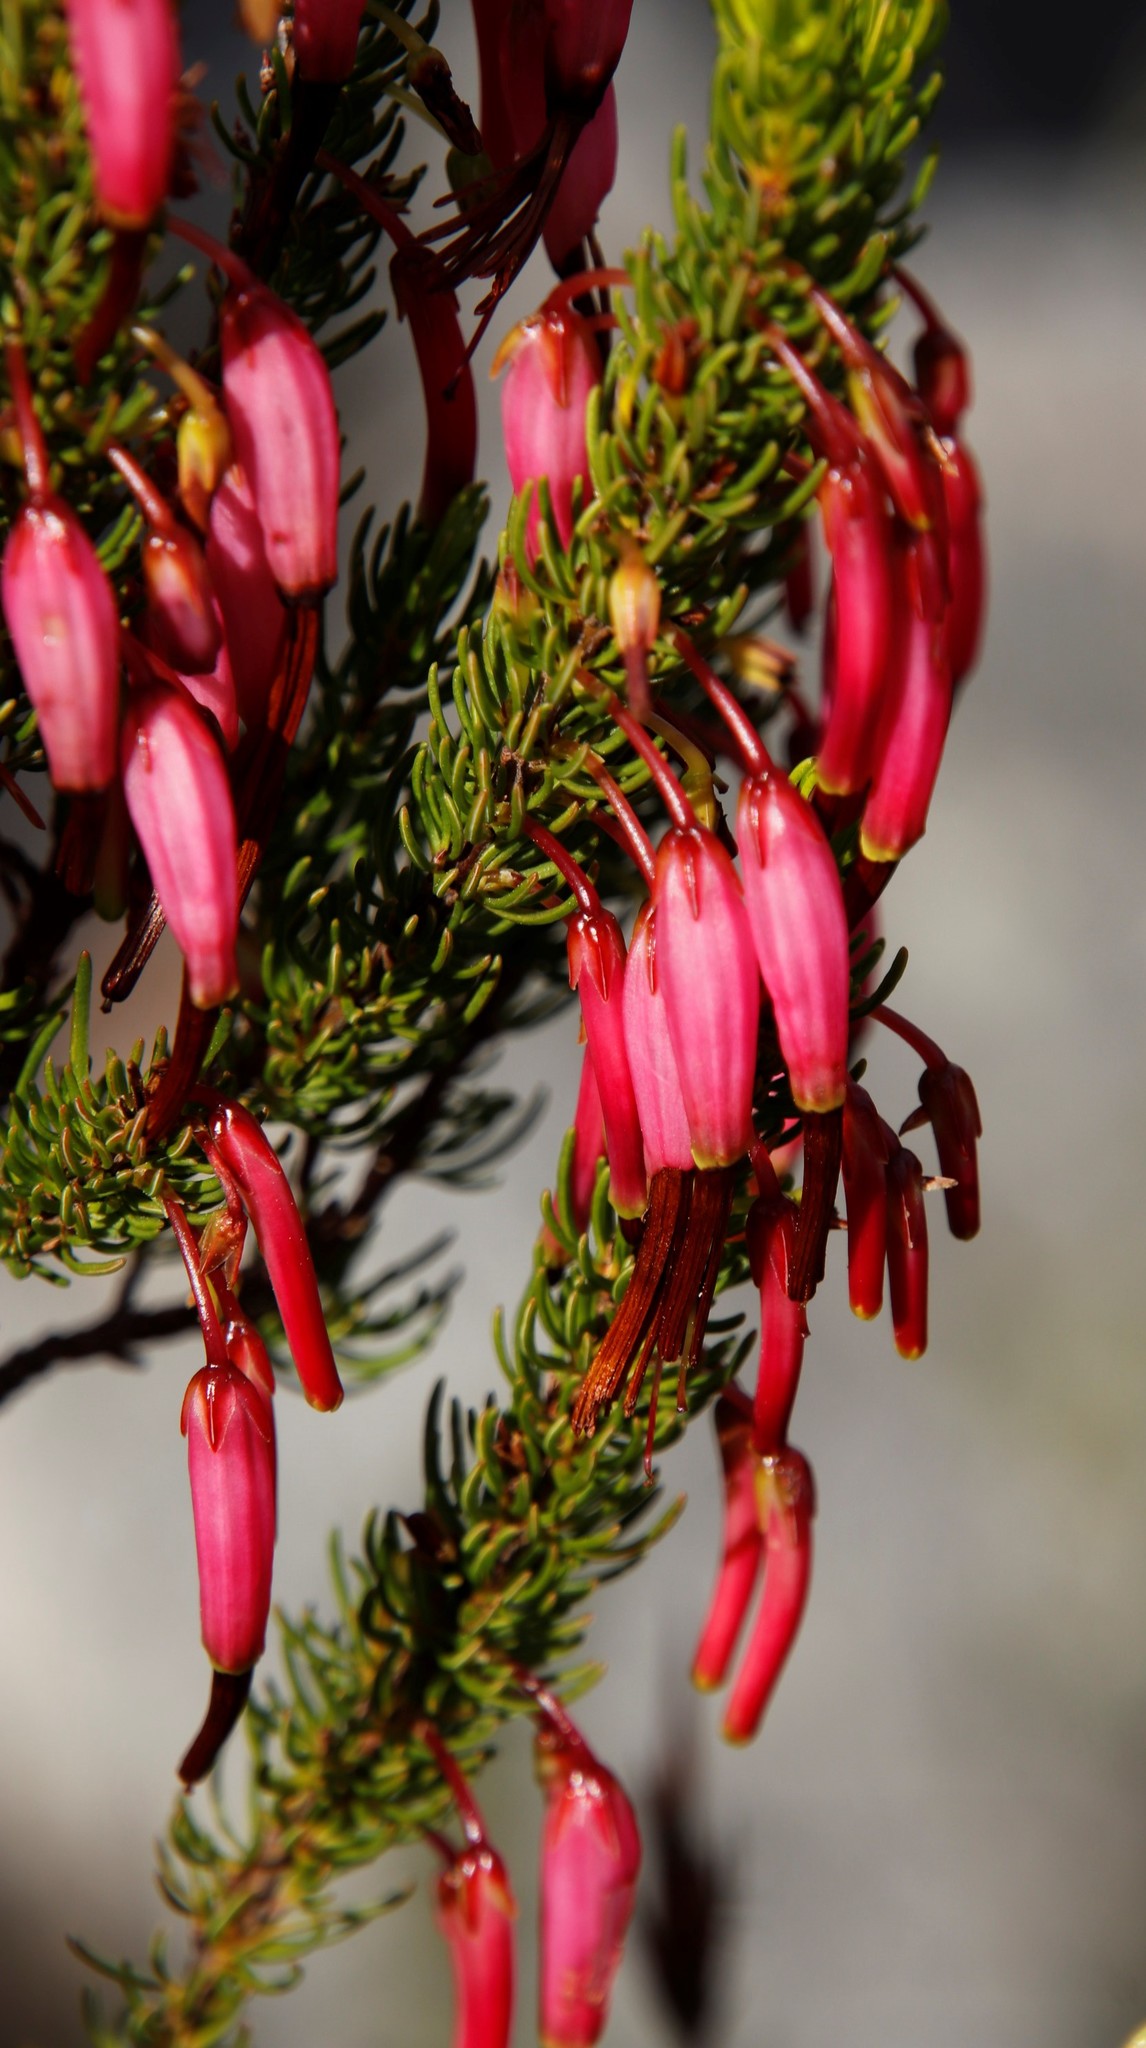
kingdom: Plantae
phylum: Tracheophyta
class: Magnoliopsida
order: Ericales
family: Ericaceae
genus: Erica
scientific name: Erica plukenetii
